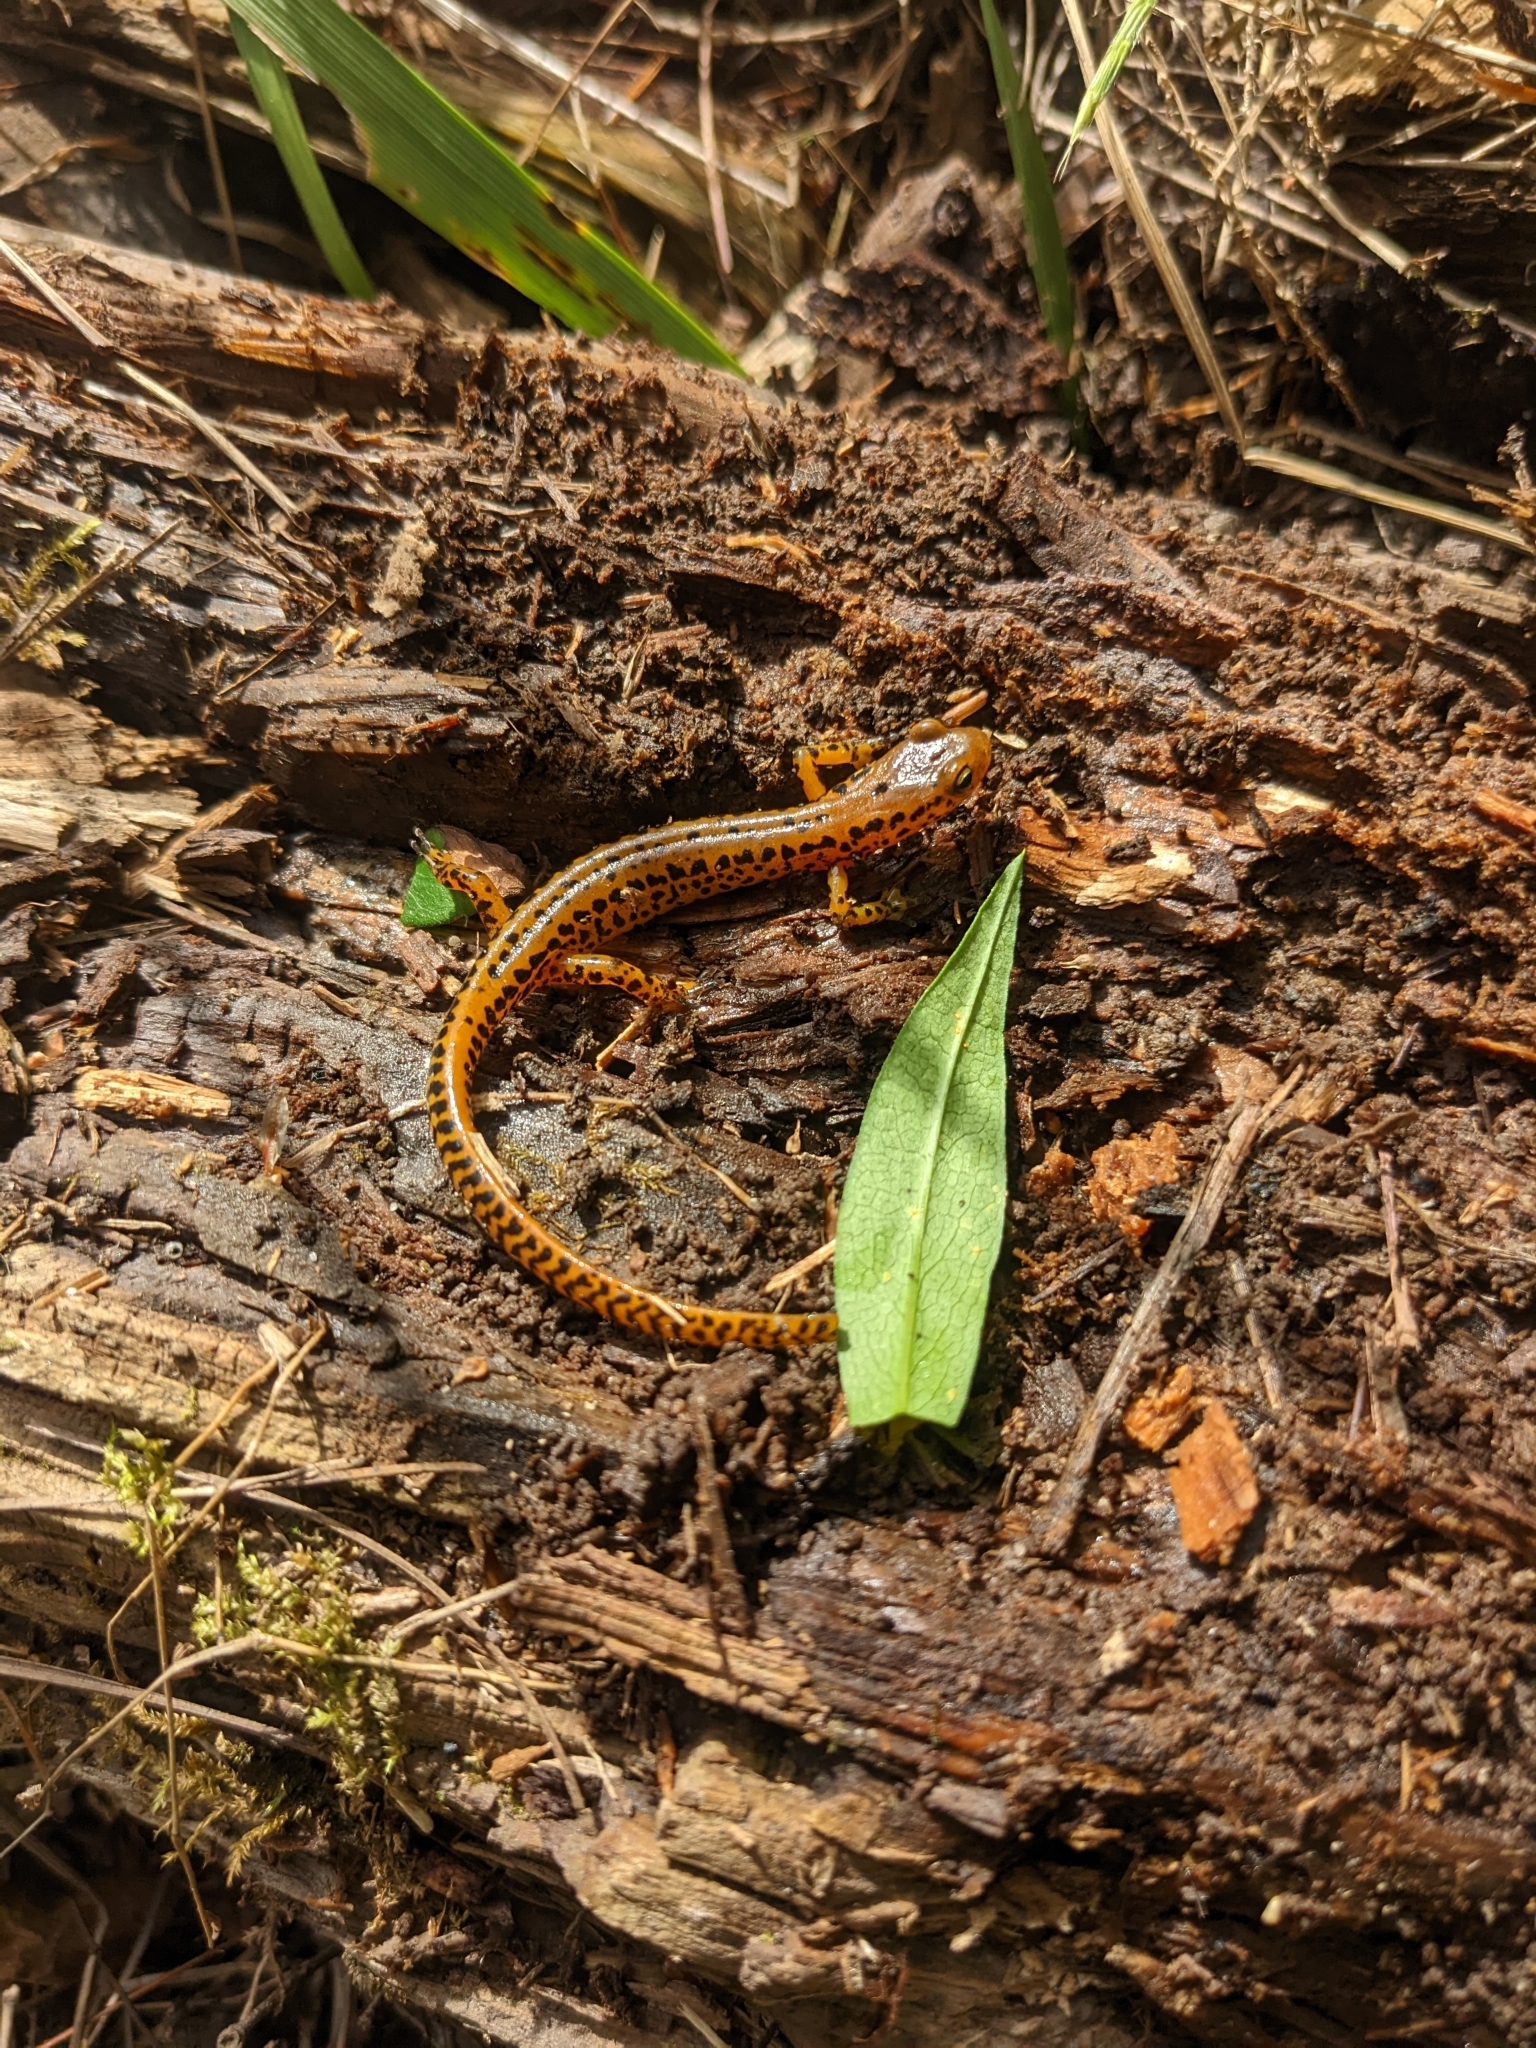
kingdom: Animalia
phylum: Chordata
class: Amphibia
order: Caudata
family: Plethodontidae
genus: Eurycea
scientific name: Eurycea longicauda
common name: Long-tailed salamander
